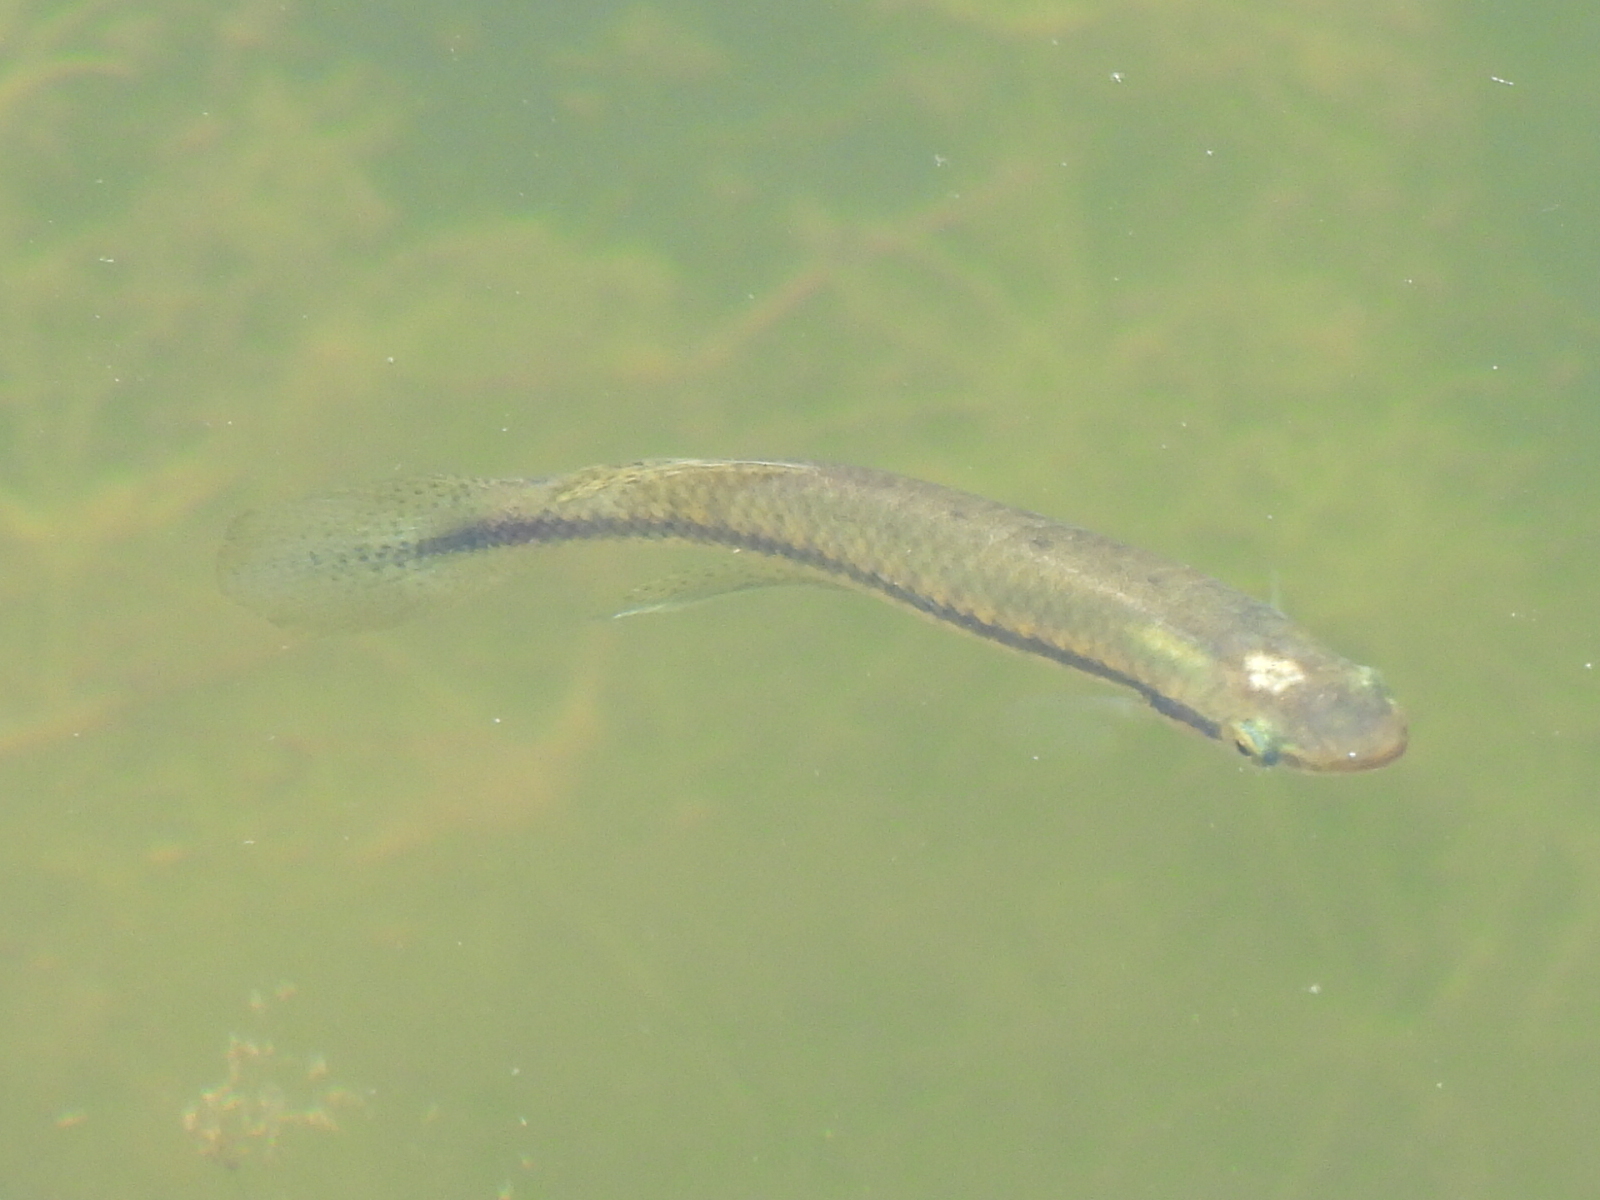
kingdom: Animalia
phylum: Chordata
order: Cyprinodontiformes
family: Fundulidae
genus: Fundulus
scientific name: Fundulus notatus
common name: Blackstripe topminnow
